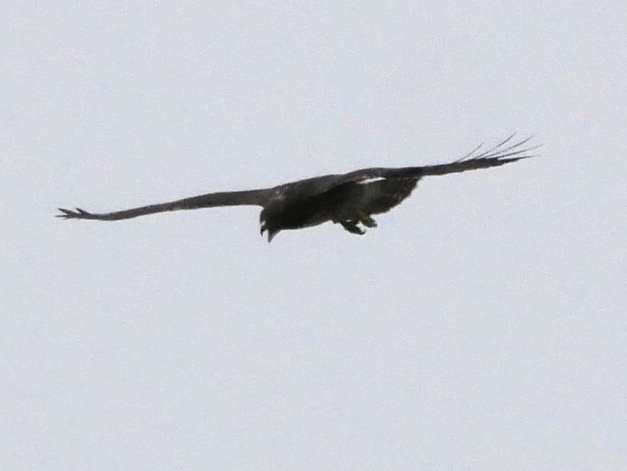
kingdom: Animalia
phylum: Chordata
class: Aves
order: Accipitriformes
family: Accipitridae
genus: Buteo
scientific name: Buteo jamaicensis
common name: Red-tailed hawk
